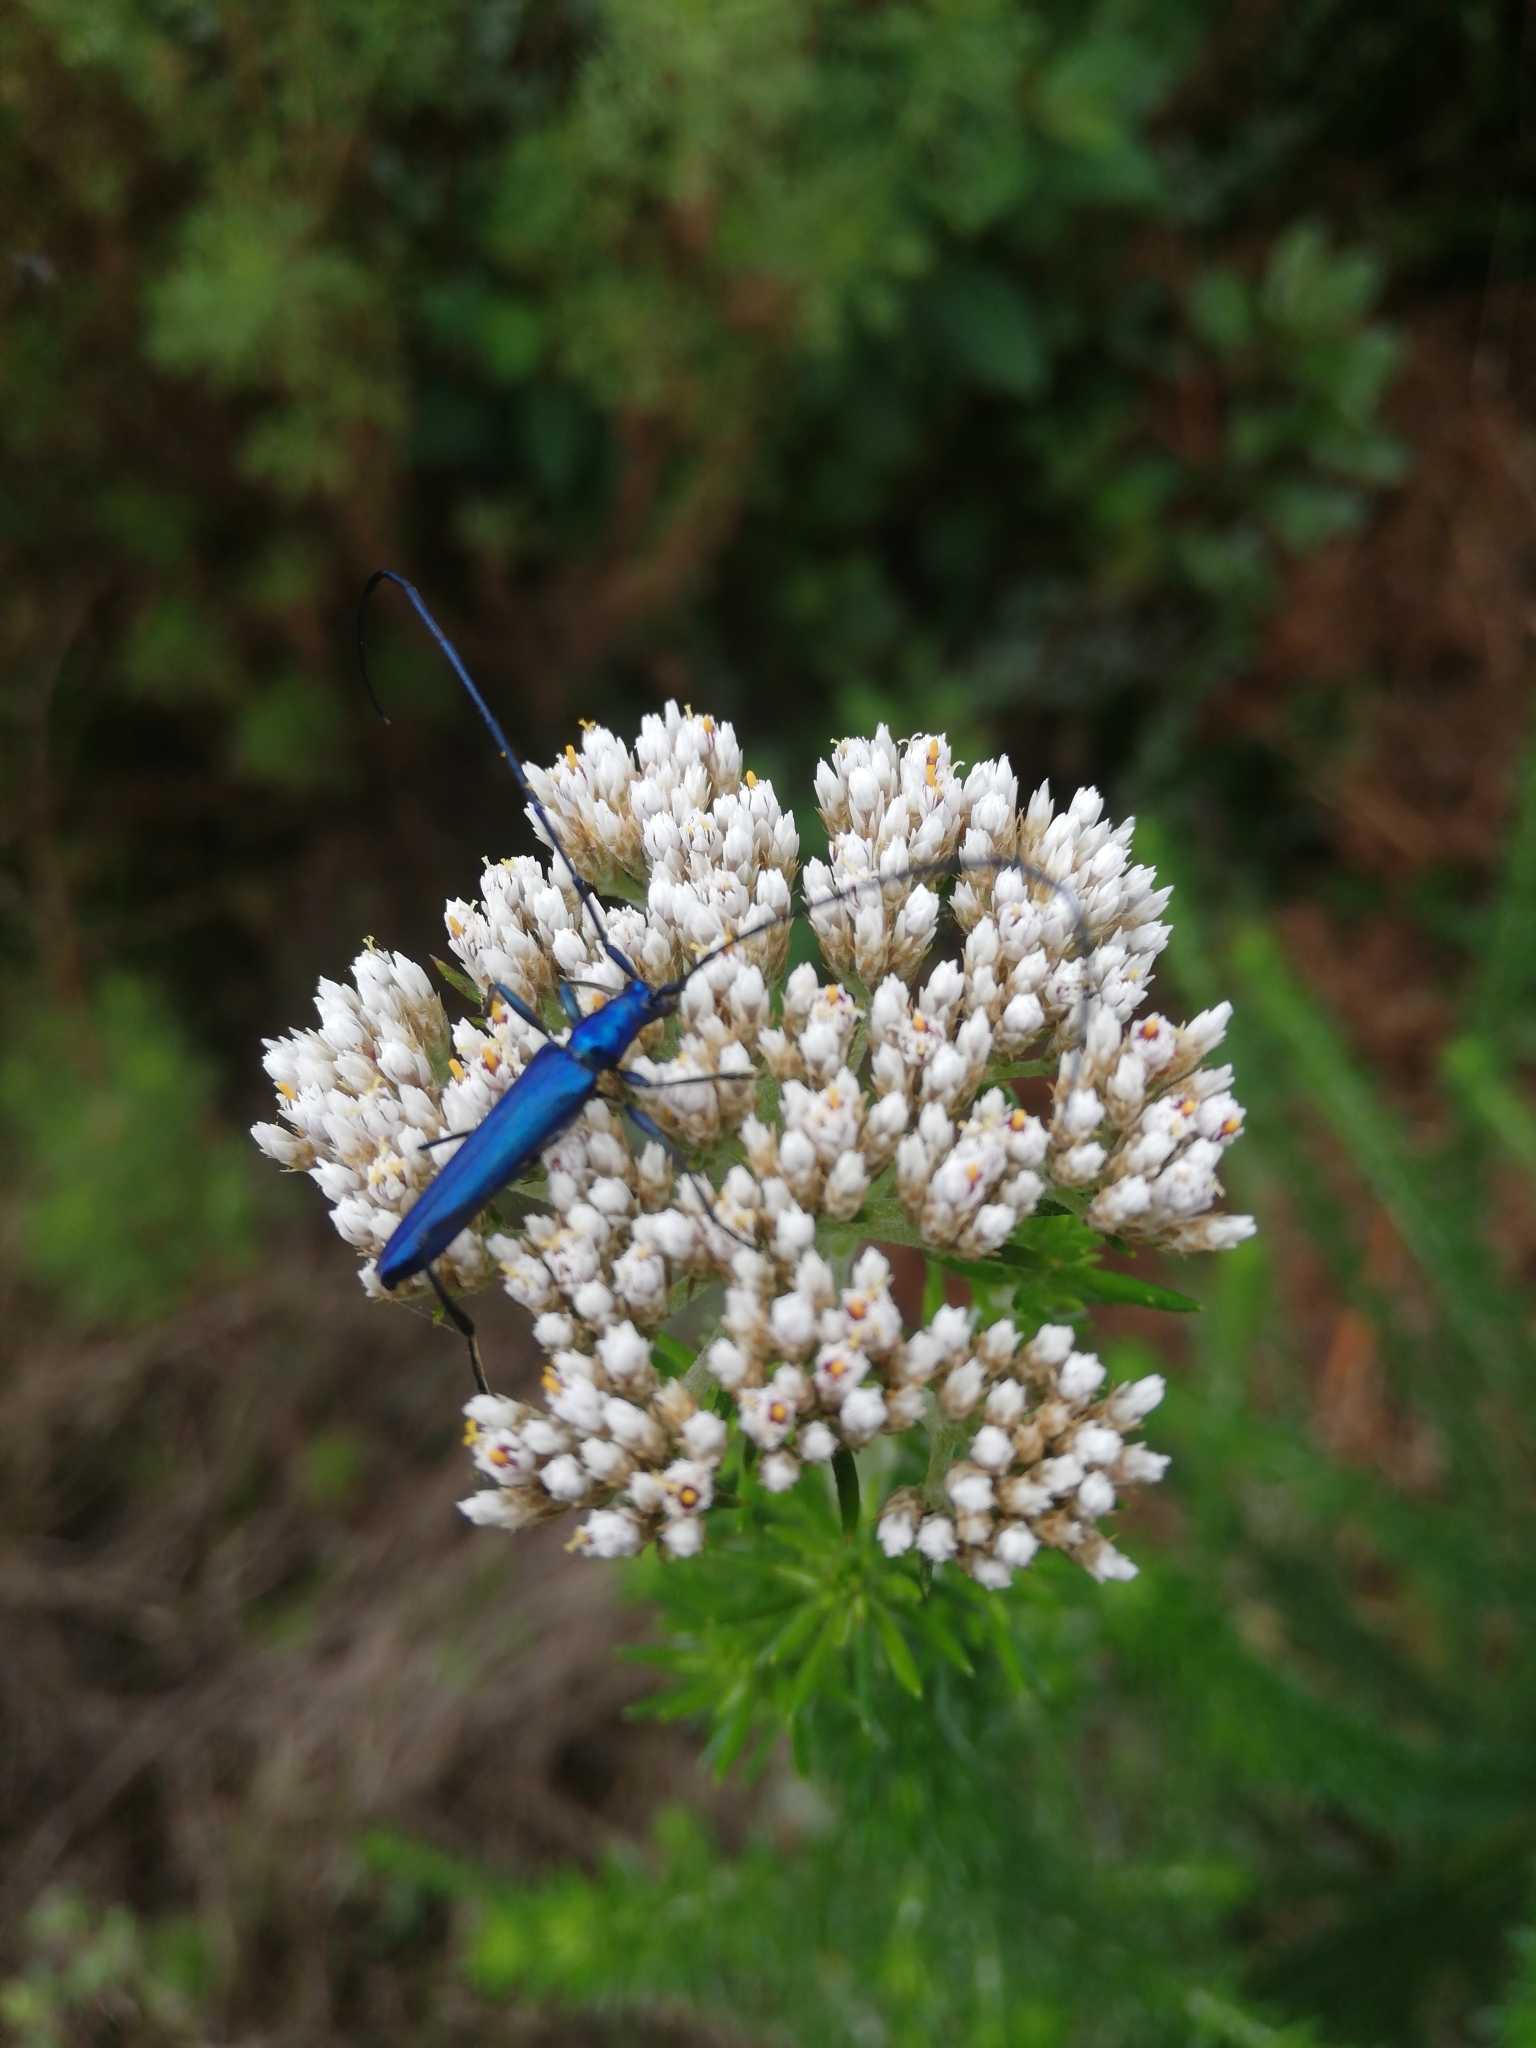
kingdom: Animalia
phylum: Arthropoda
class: Insecta
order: Coleoptera
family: Cerambycidae
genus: Promeces
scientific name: Promeces longipes
